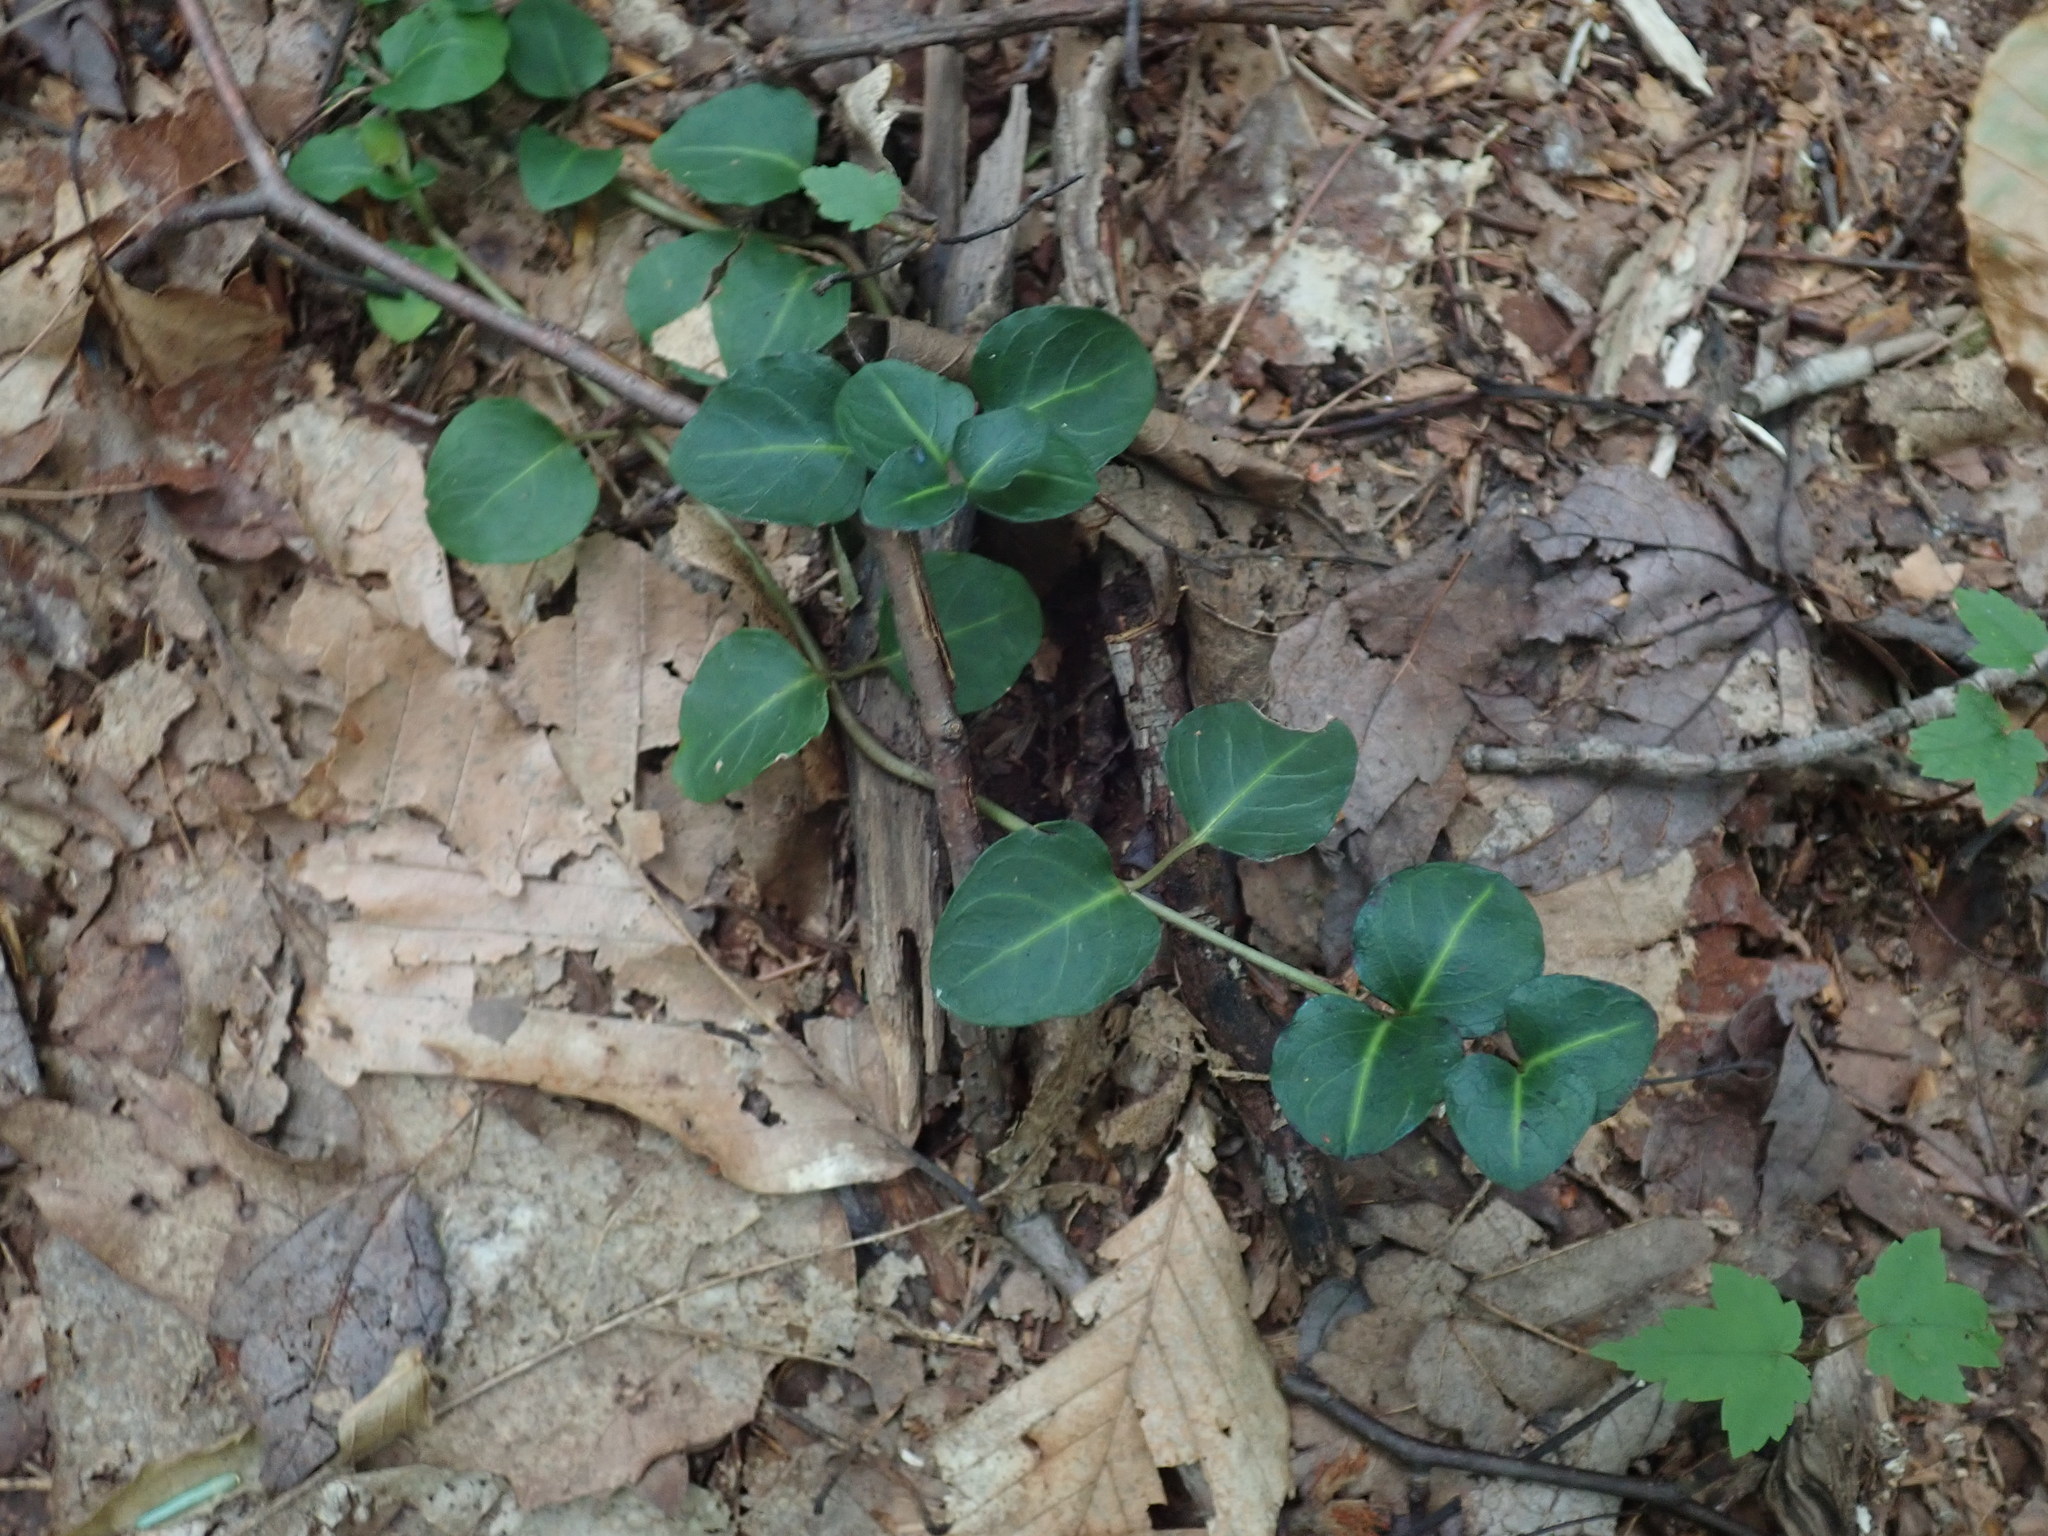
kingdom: Plantae
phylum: Tracheophyta
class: Magnoliopsida
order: Gentianales
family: Rubiaceae
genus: Mitchella
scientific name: Mitchella repens
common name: Partridge-berry
